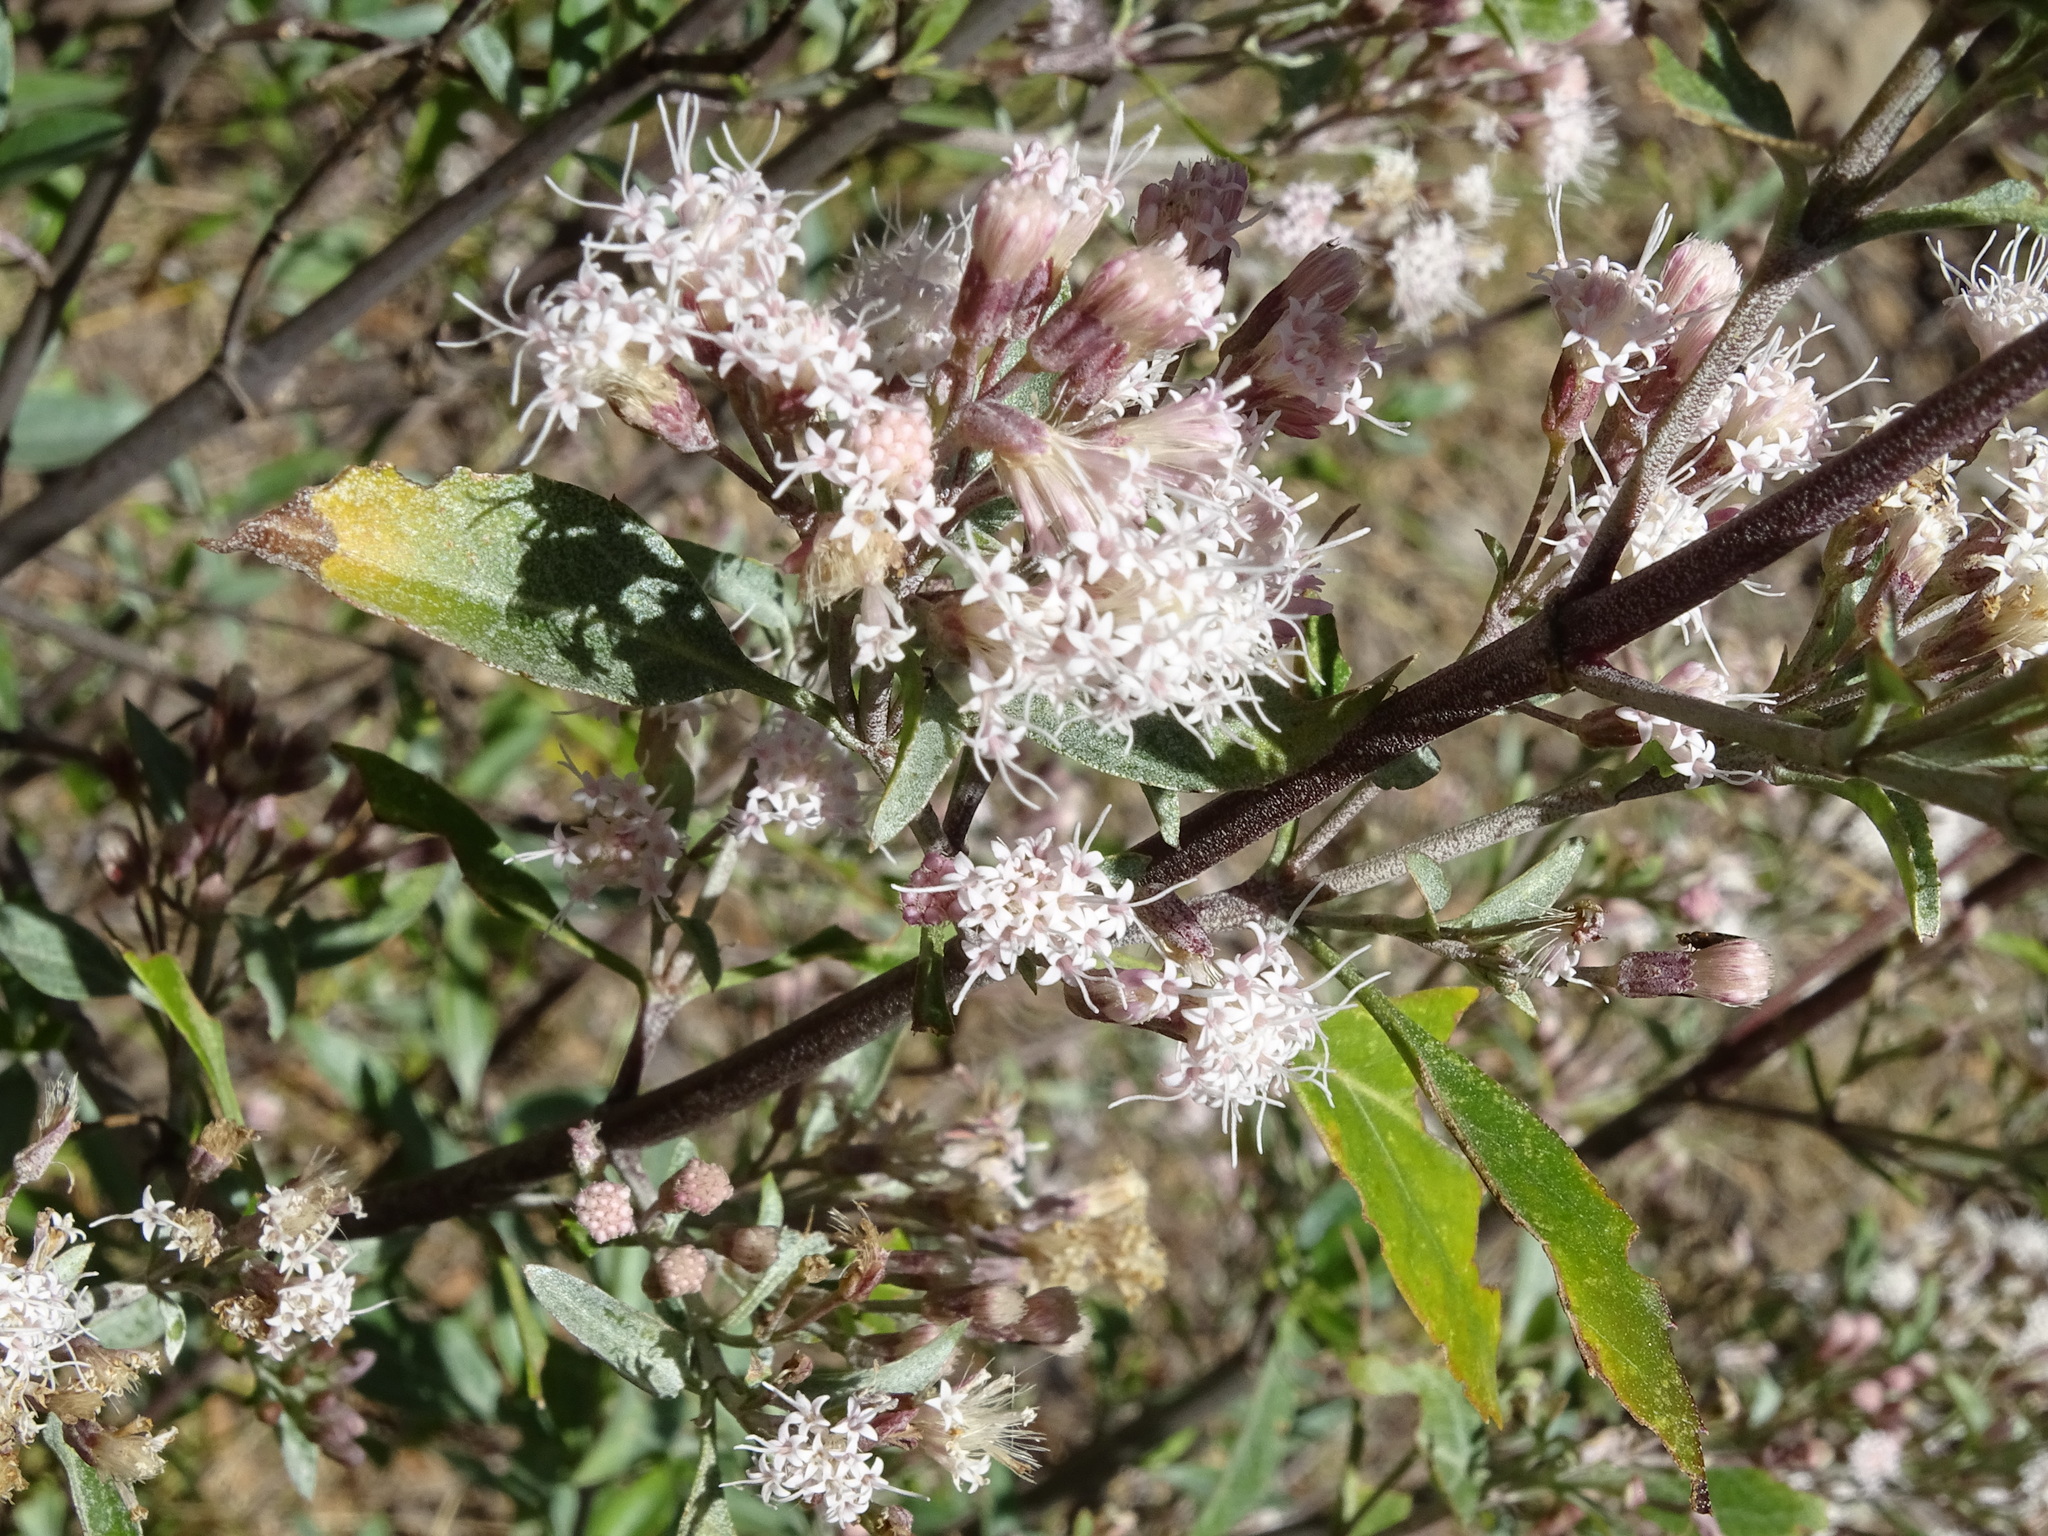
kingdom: Plantae
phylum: Tracheophyta
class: Magnoliopsida
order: Asterales
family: Asteraceae
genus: Ageratina
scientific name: Ageratina glabrata
